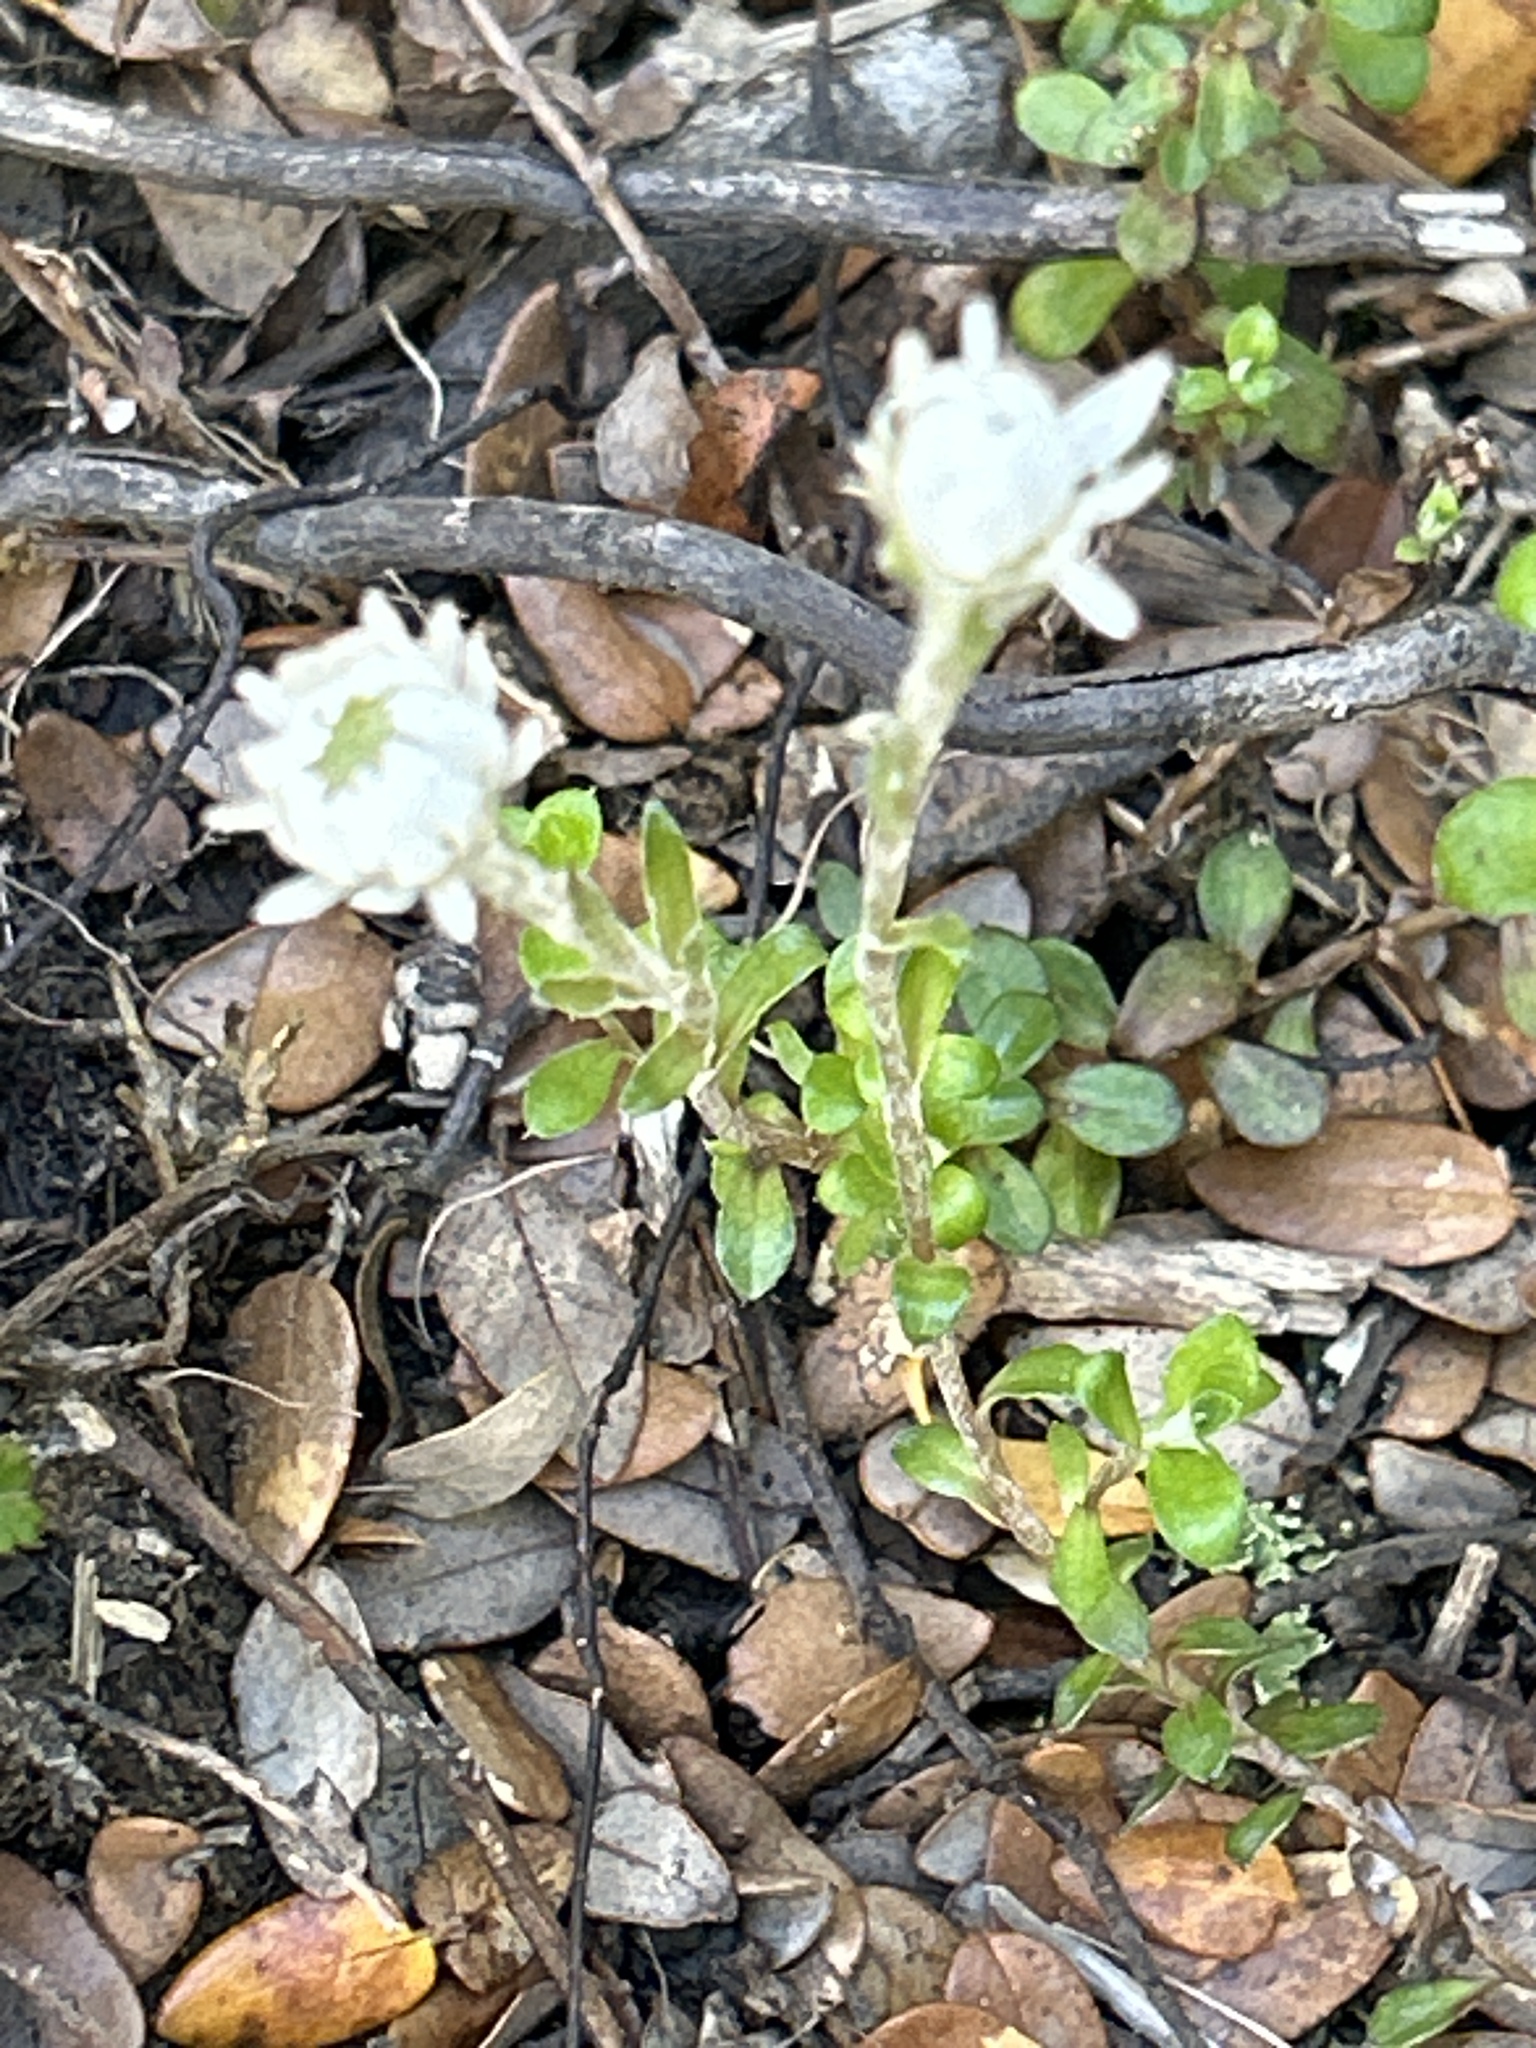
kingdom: Plantae
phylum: Tracheophyta
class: Magnoliopsida
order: Asterales
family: Asteraceae
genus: Anaphalioides
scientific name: Anaphalioides bellidioides
